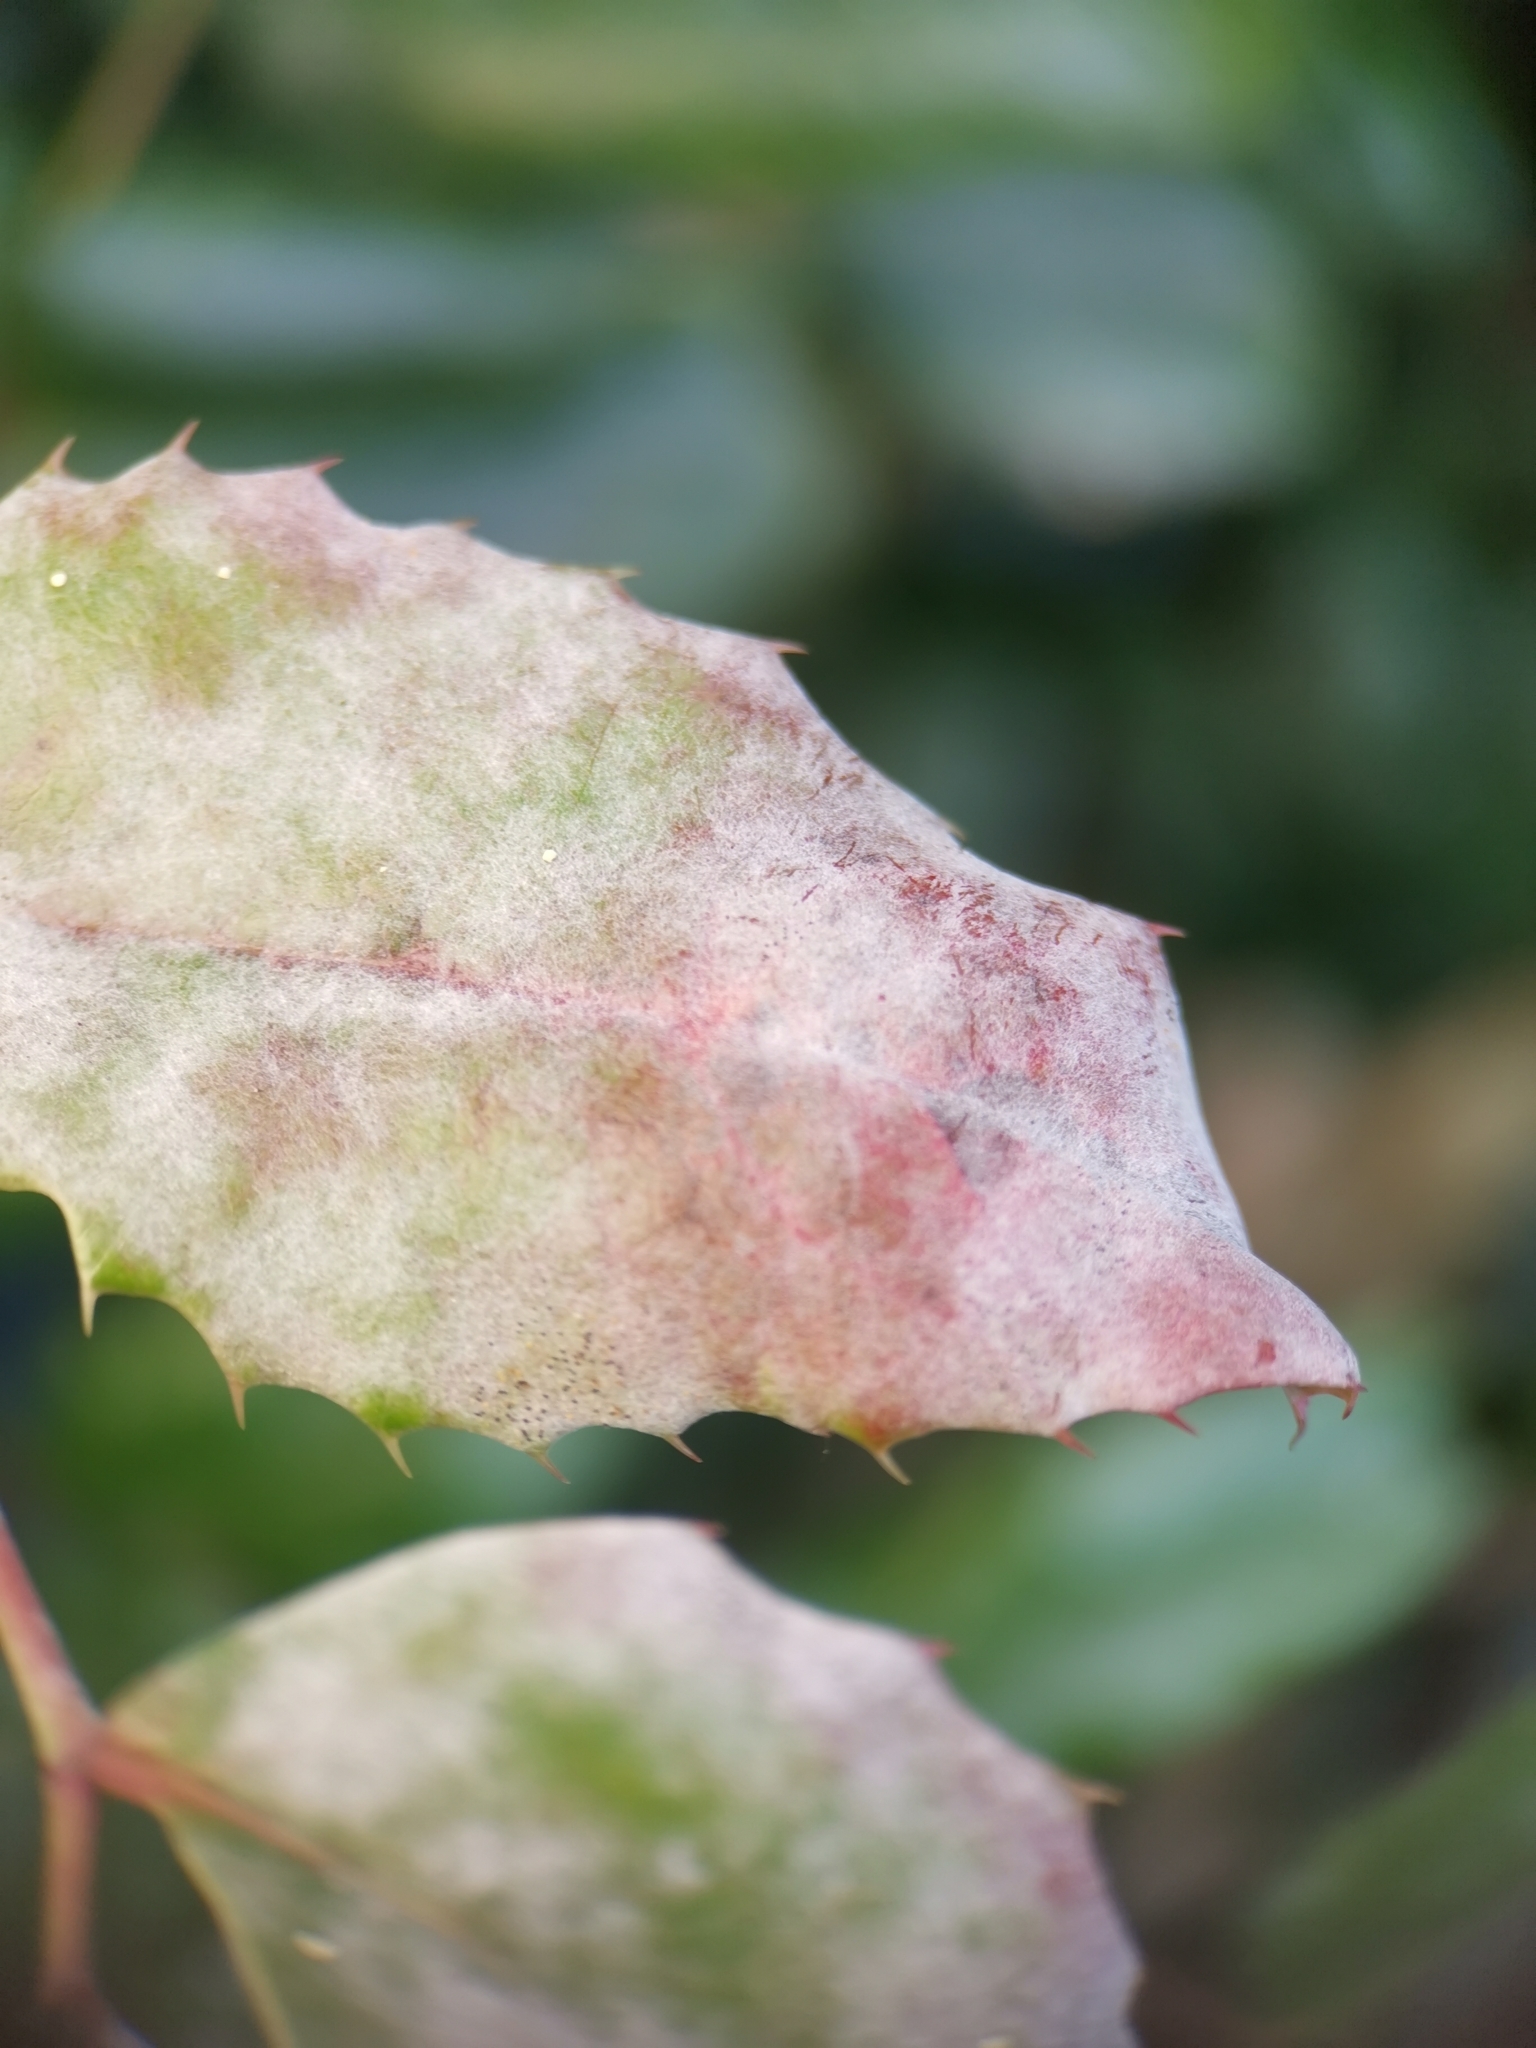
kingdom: Fungi
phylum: Ascomycota
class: Leotiomycetes
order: Helotiales
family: Erysiphaceae
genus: Erysiphe
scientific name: Erysiphe berberidis
